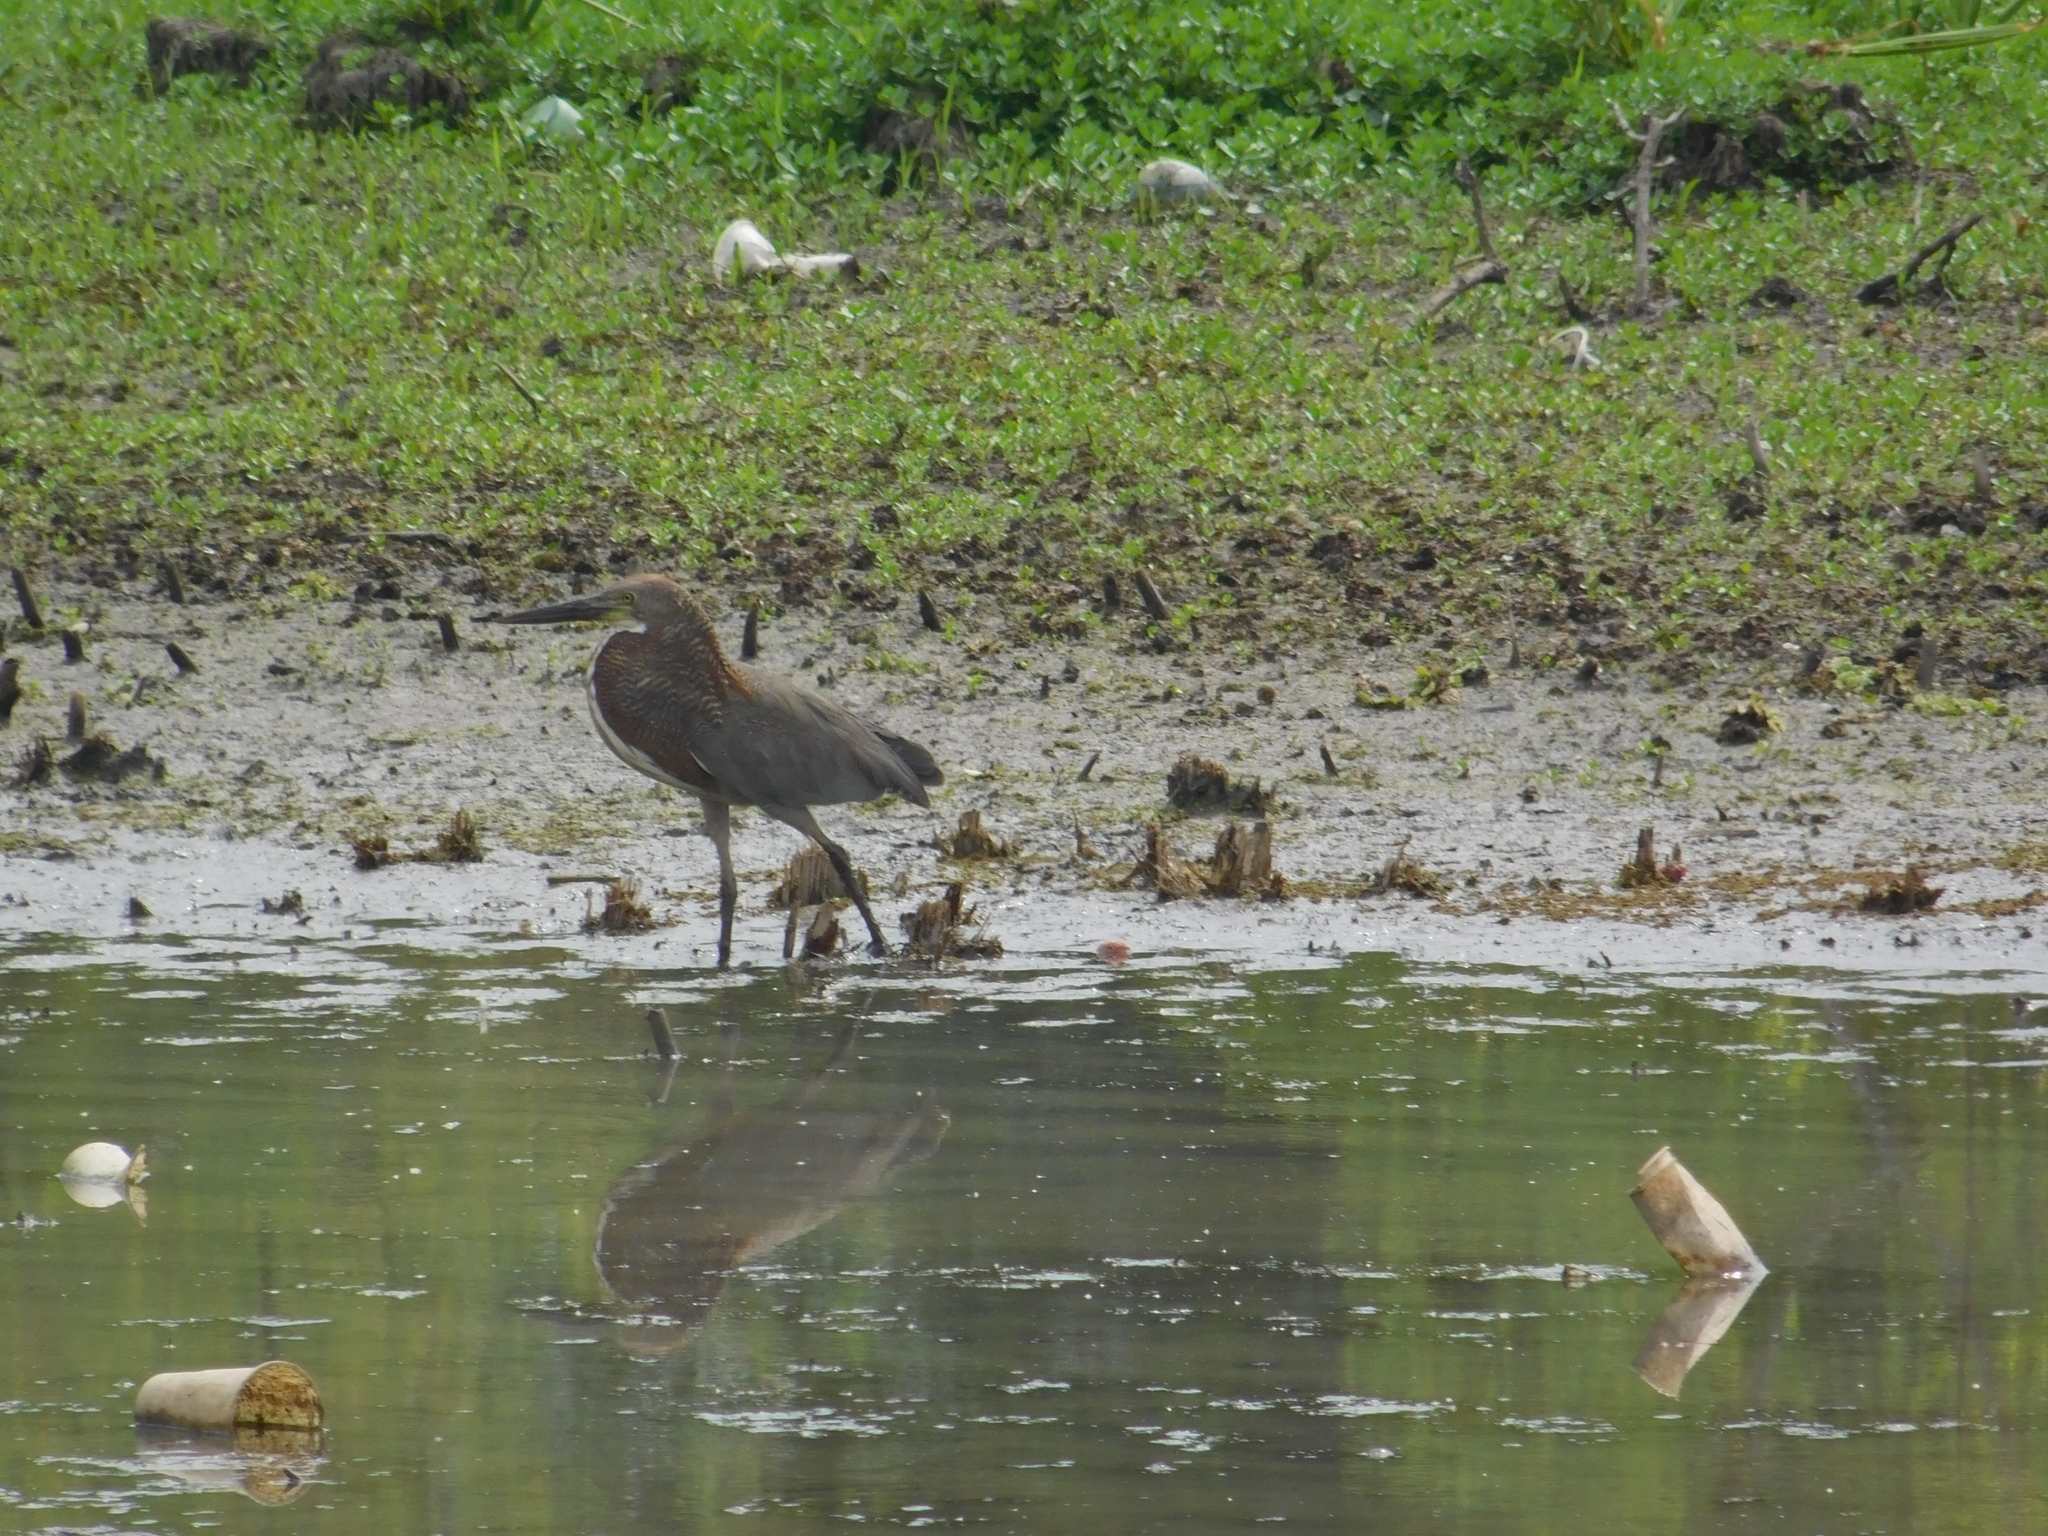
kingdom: Animalia
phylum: Chordata
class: Aves
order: Pelecaniformes
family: Ardeidae
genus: Tigrisoma
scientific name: Tigrisoma lineatum
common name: Rufescent tiger-heron
